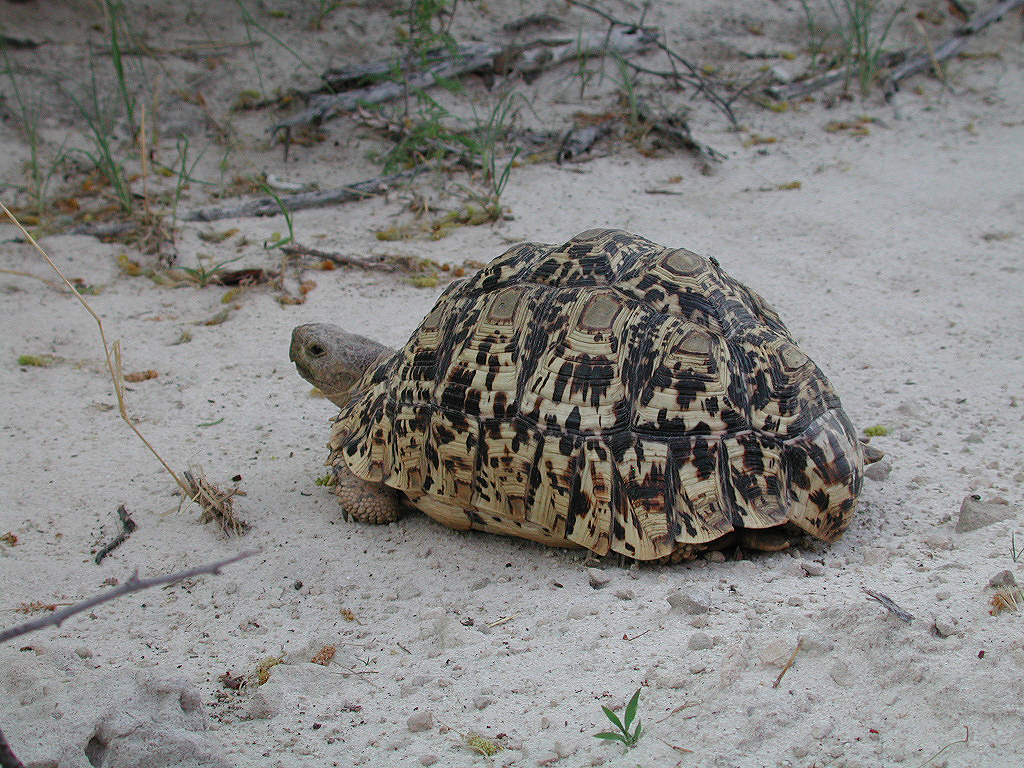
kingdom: Animalia
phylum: Chordata
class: Testudines
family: Testudinidae
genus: Stigmochelys
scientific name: Stigmochelys pardalis
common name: Leopard tortoise
